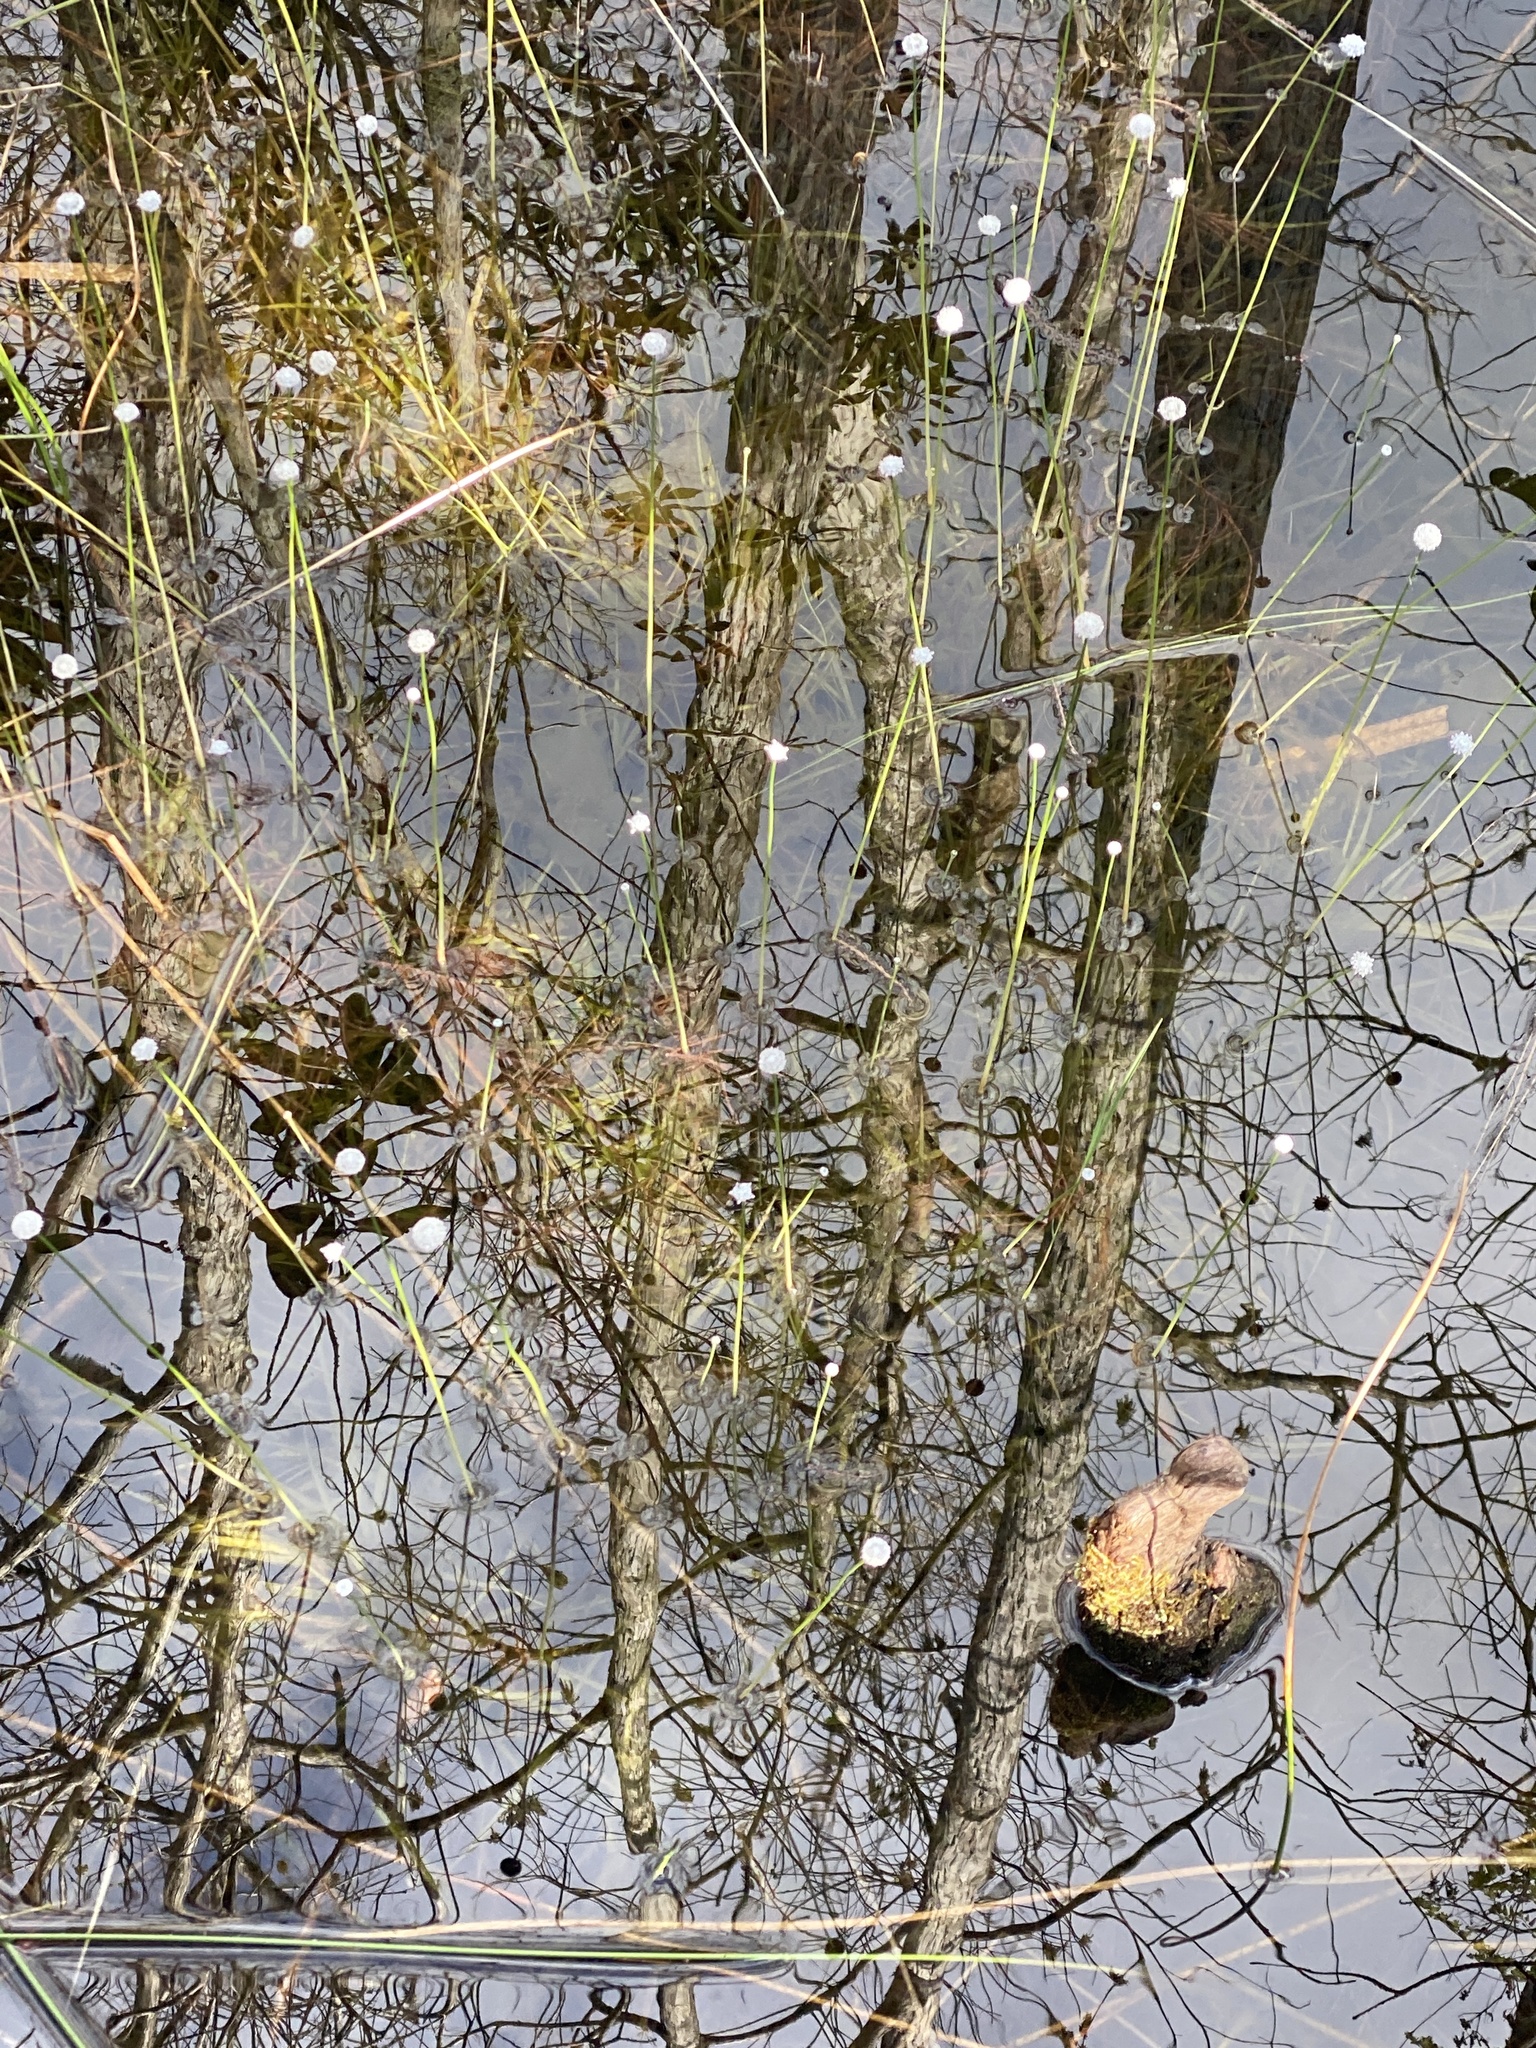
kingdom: Plantae
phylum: Tracheophyta
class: Liliopsida
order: Poales
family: Eriocaulaceae
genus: Eriocaulon
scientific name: Eriocaulon compressum
